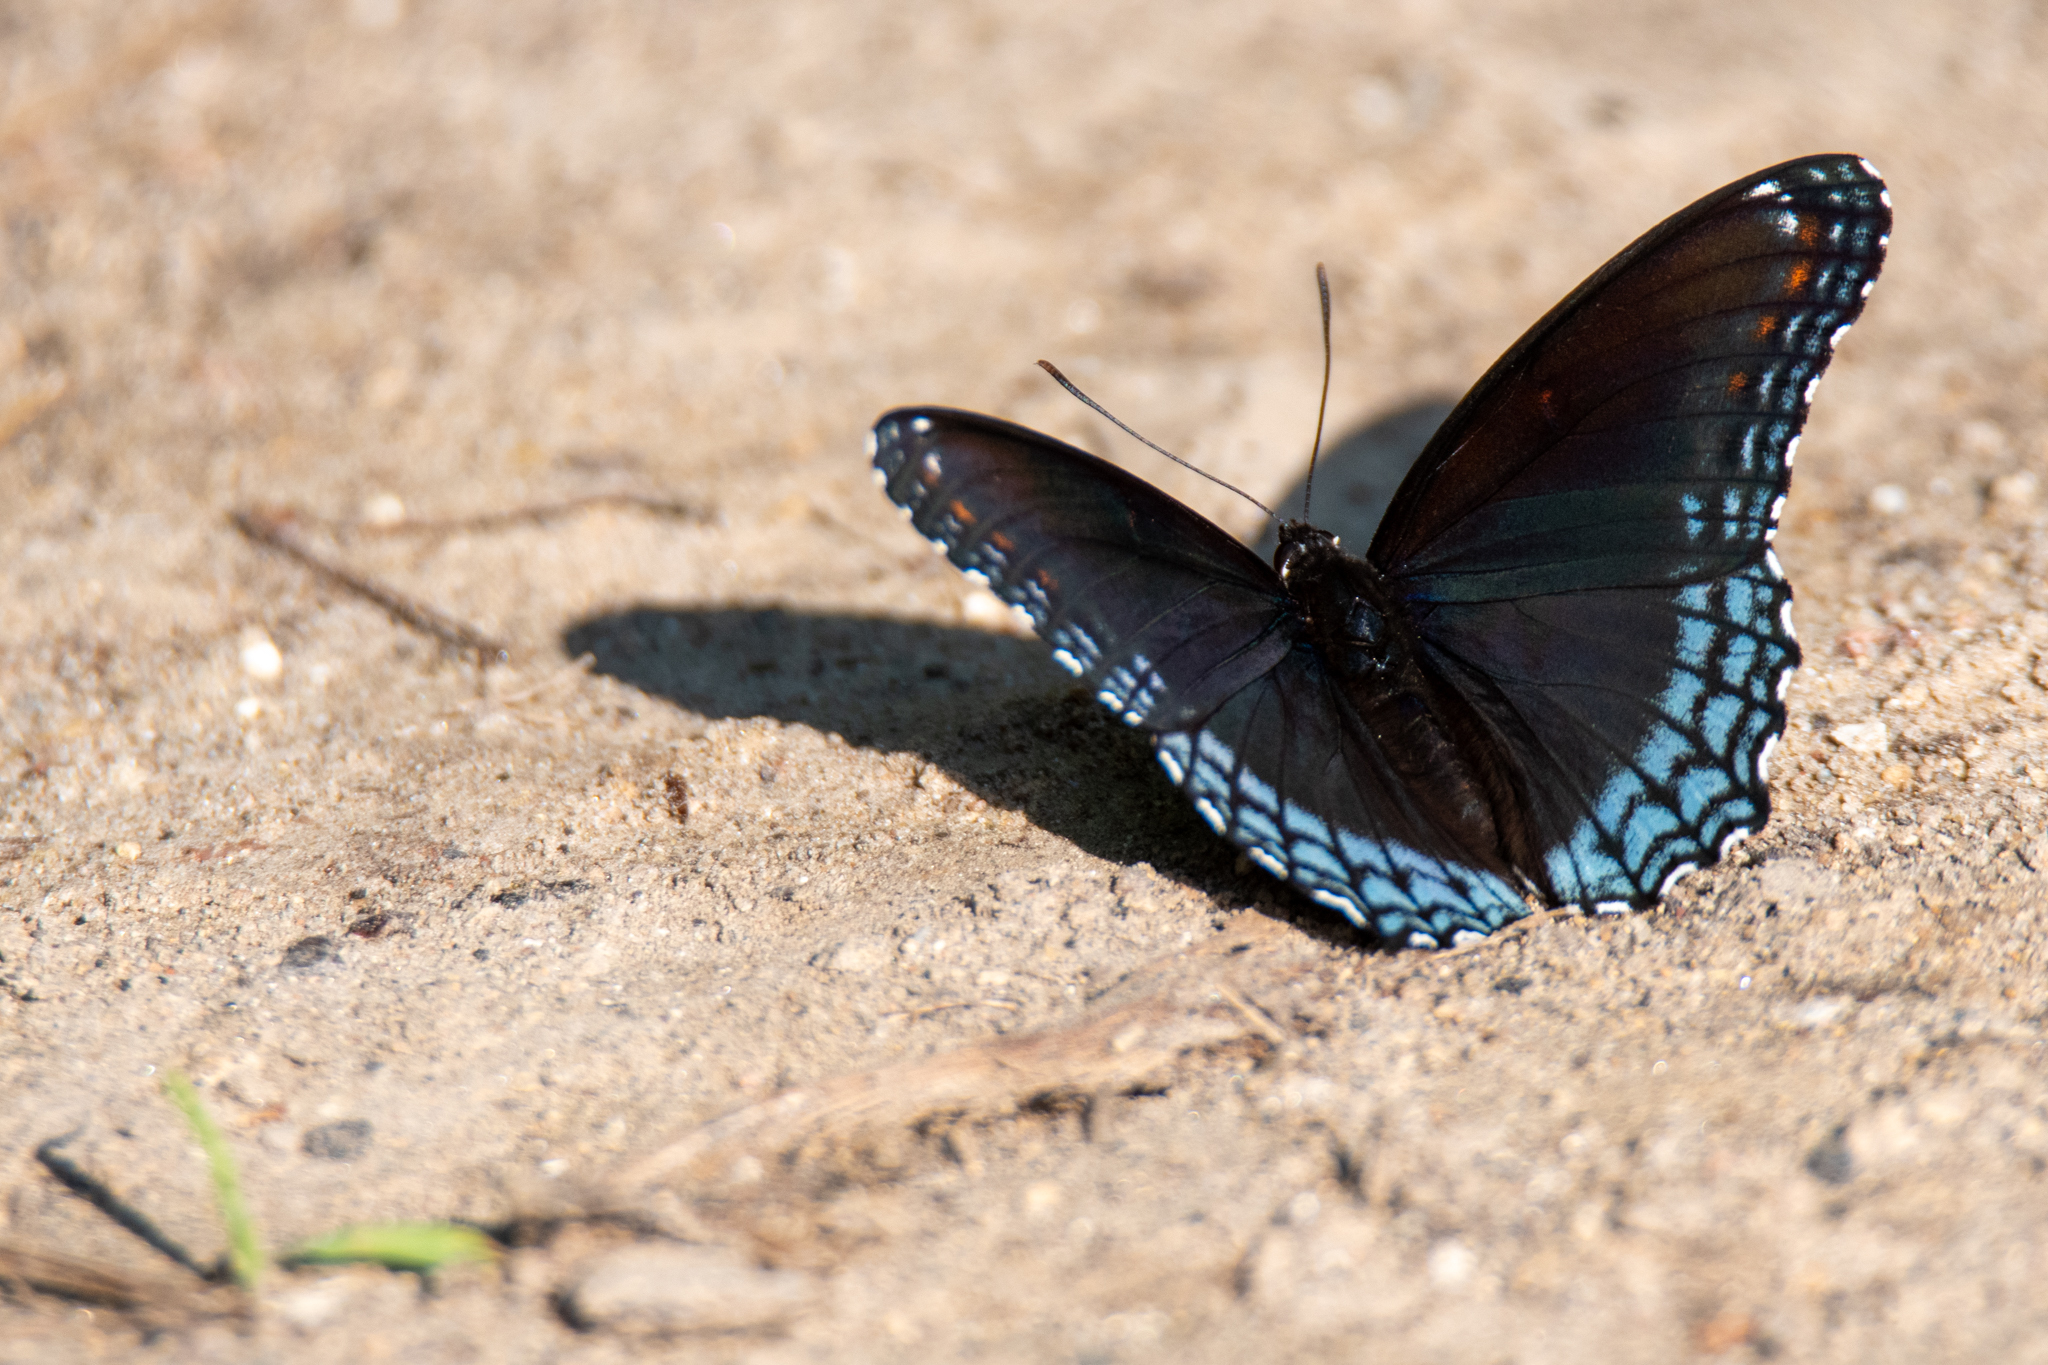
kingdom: Animalia
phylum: Arthropoda
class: Insecta
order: Lepidoptera
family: Nymphalidae
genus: Limenitis
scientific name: Limenitis astyanax
